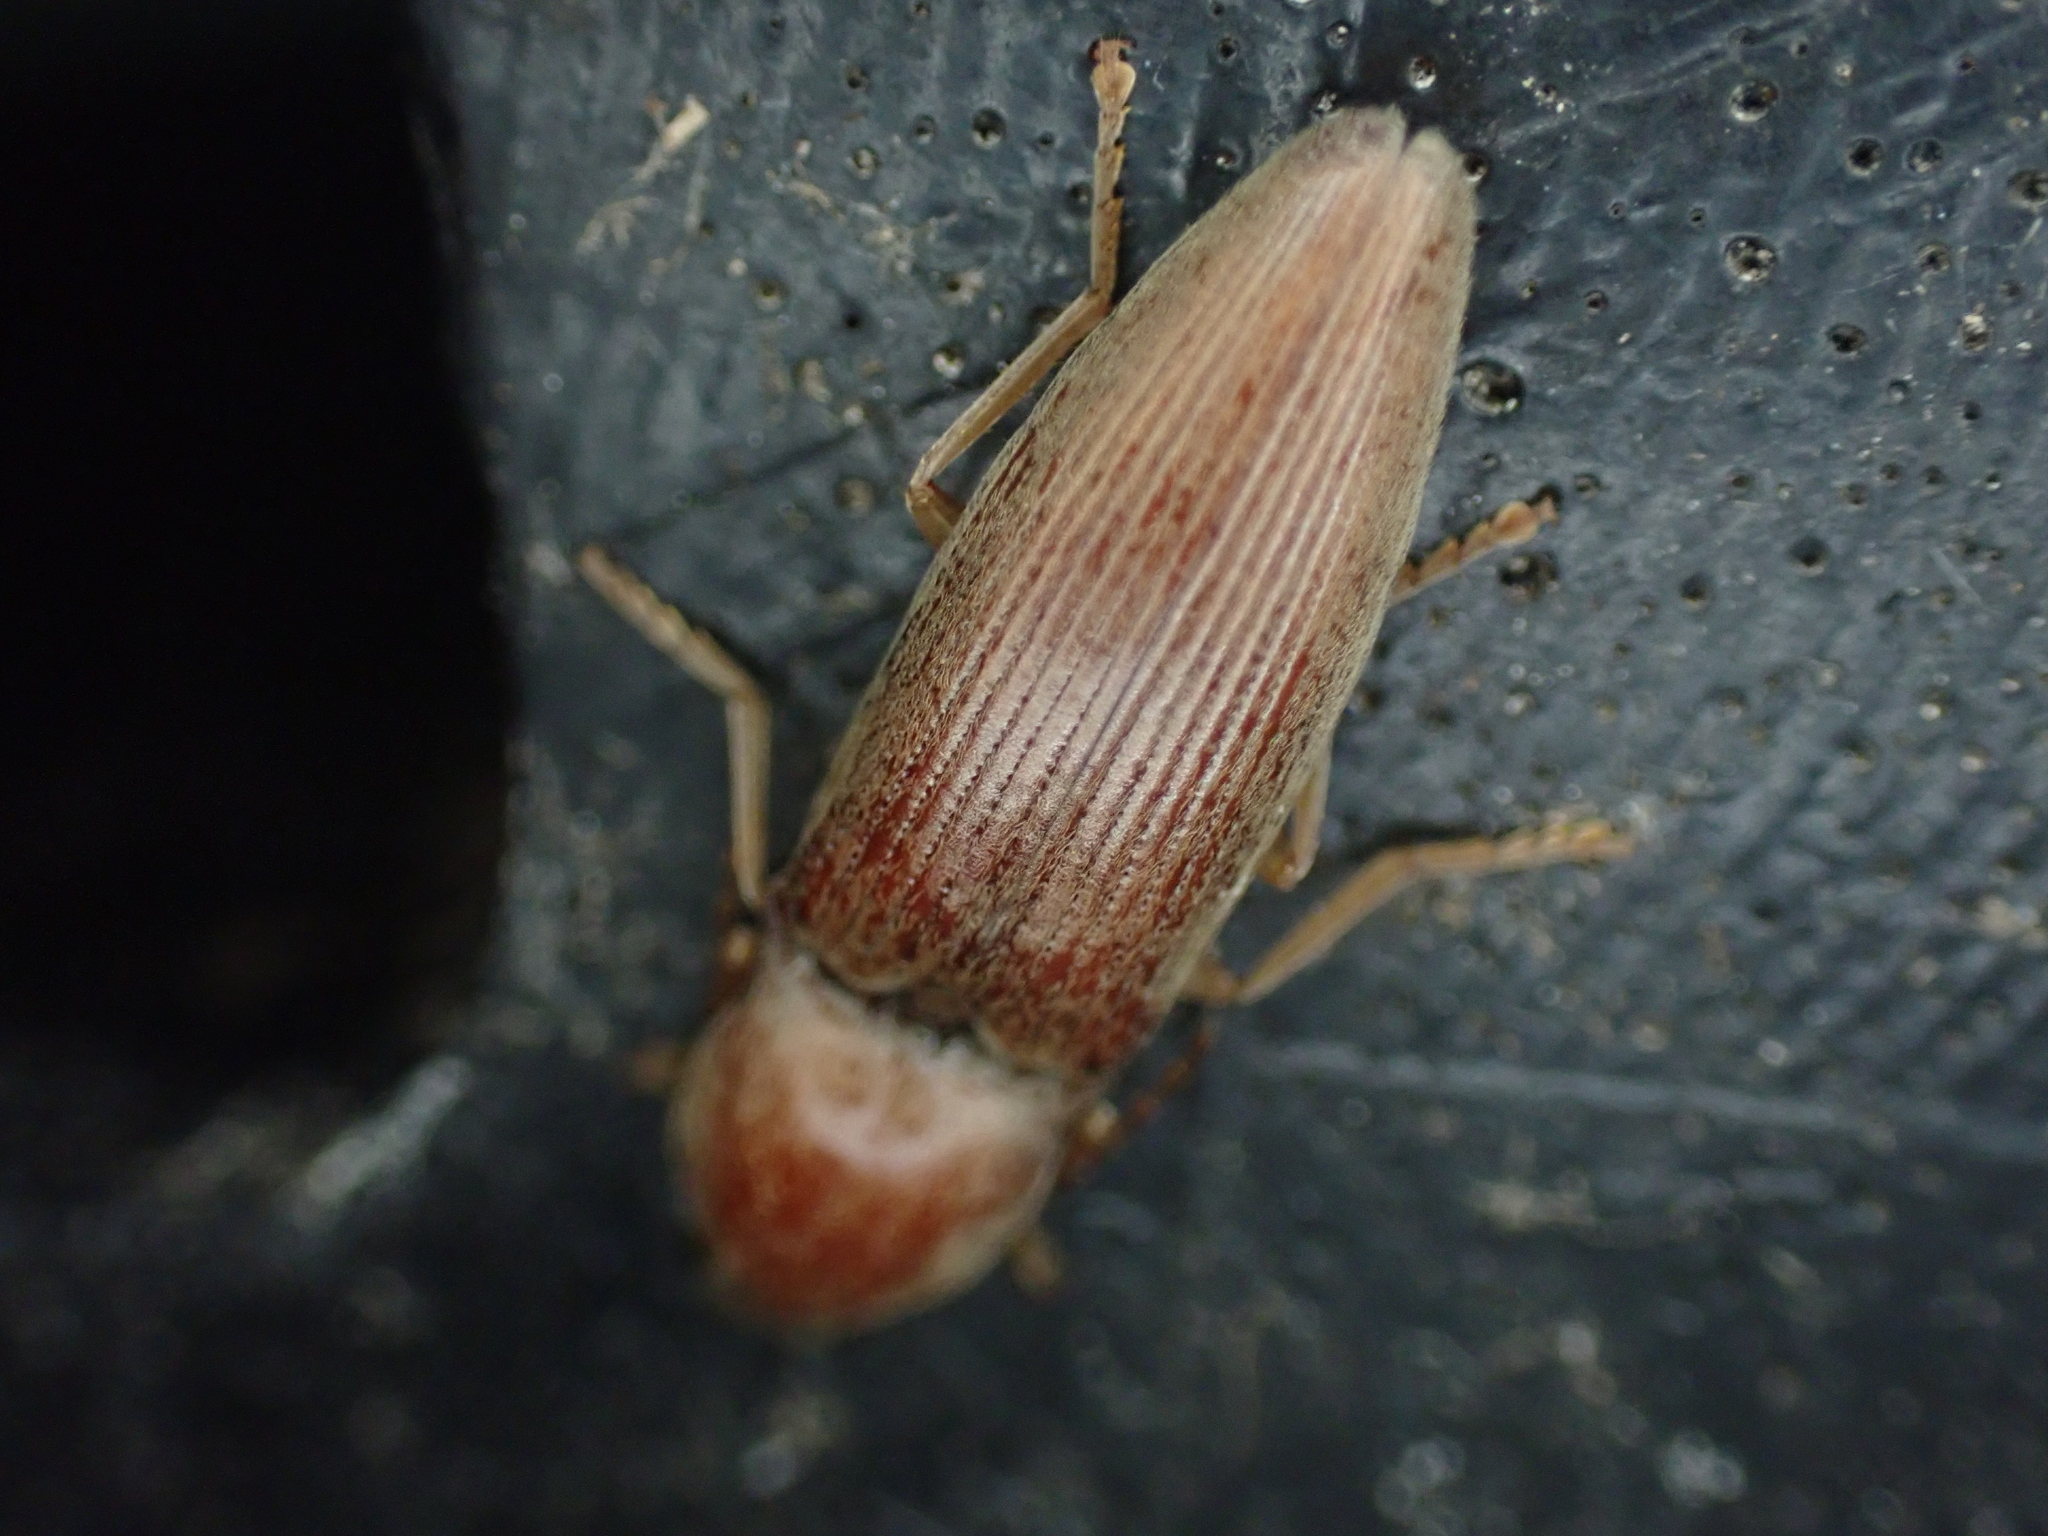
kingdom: Animalia
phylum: Arthropoda
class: Insecta
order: Coleoptera
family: Elateridae
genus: Monocrepidius
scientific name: Monocrepidius lividus
